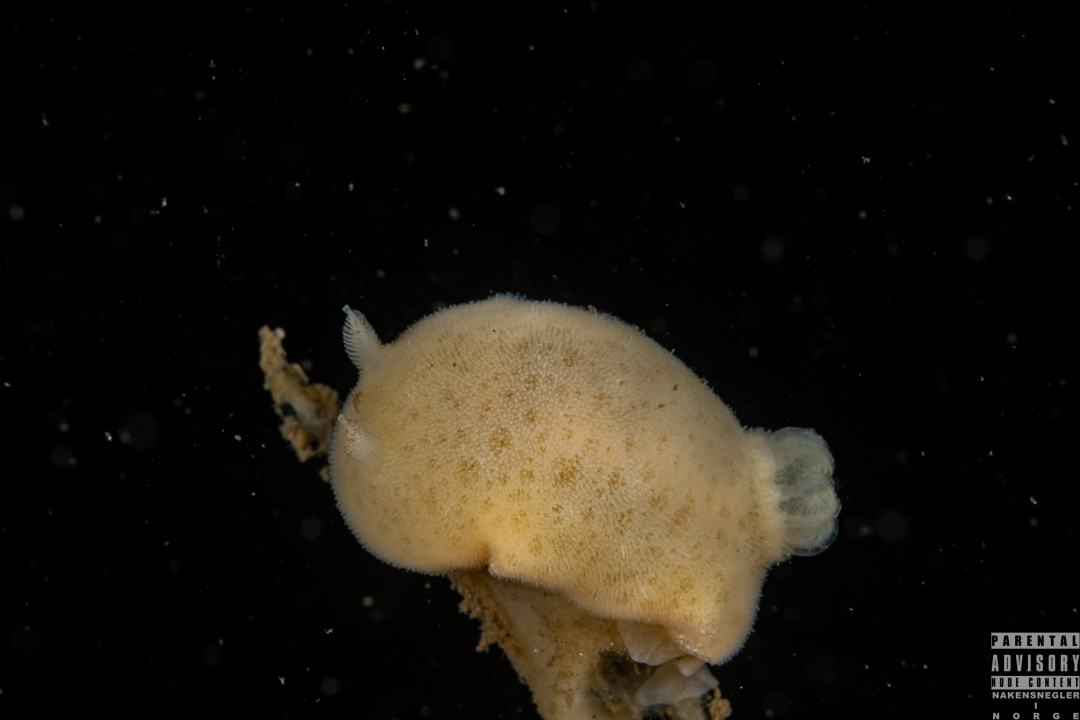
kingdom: Animalia
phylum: Mollusca
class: Gastropoda
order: Nudibranchia
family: Discodorididae
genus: Jorunna
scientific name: Jorunna tomentosa
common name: Grey sea slug
